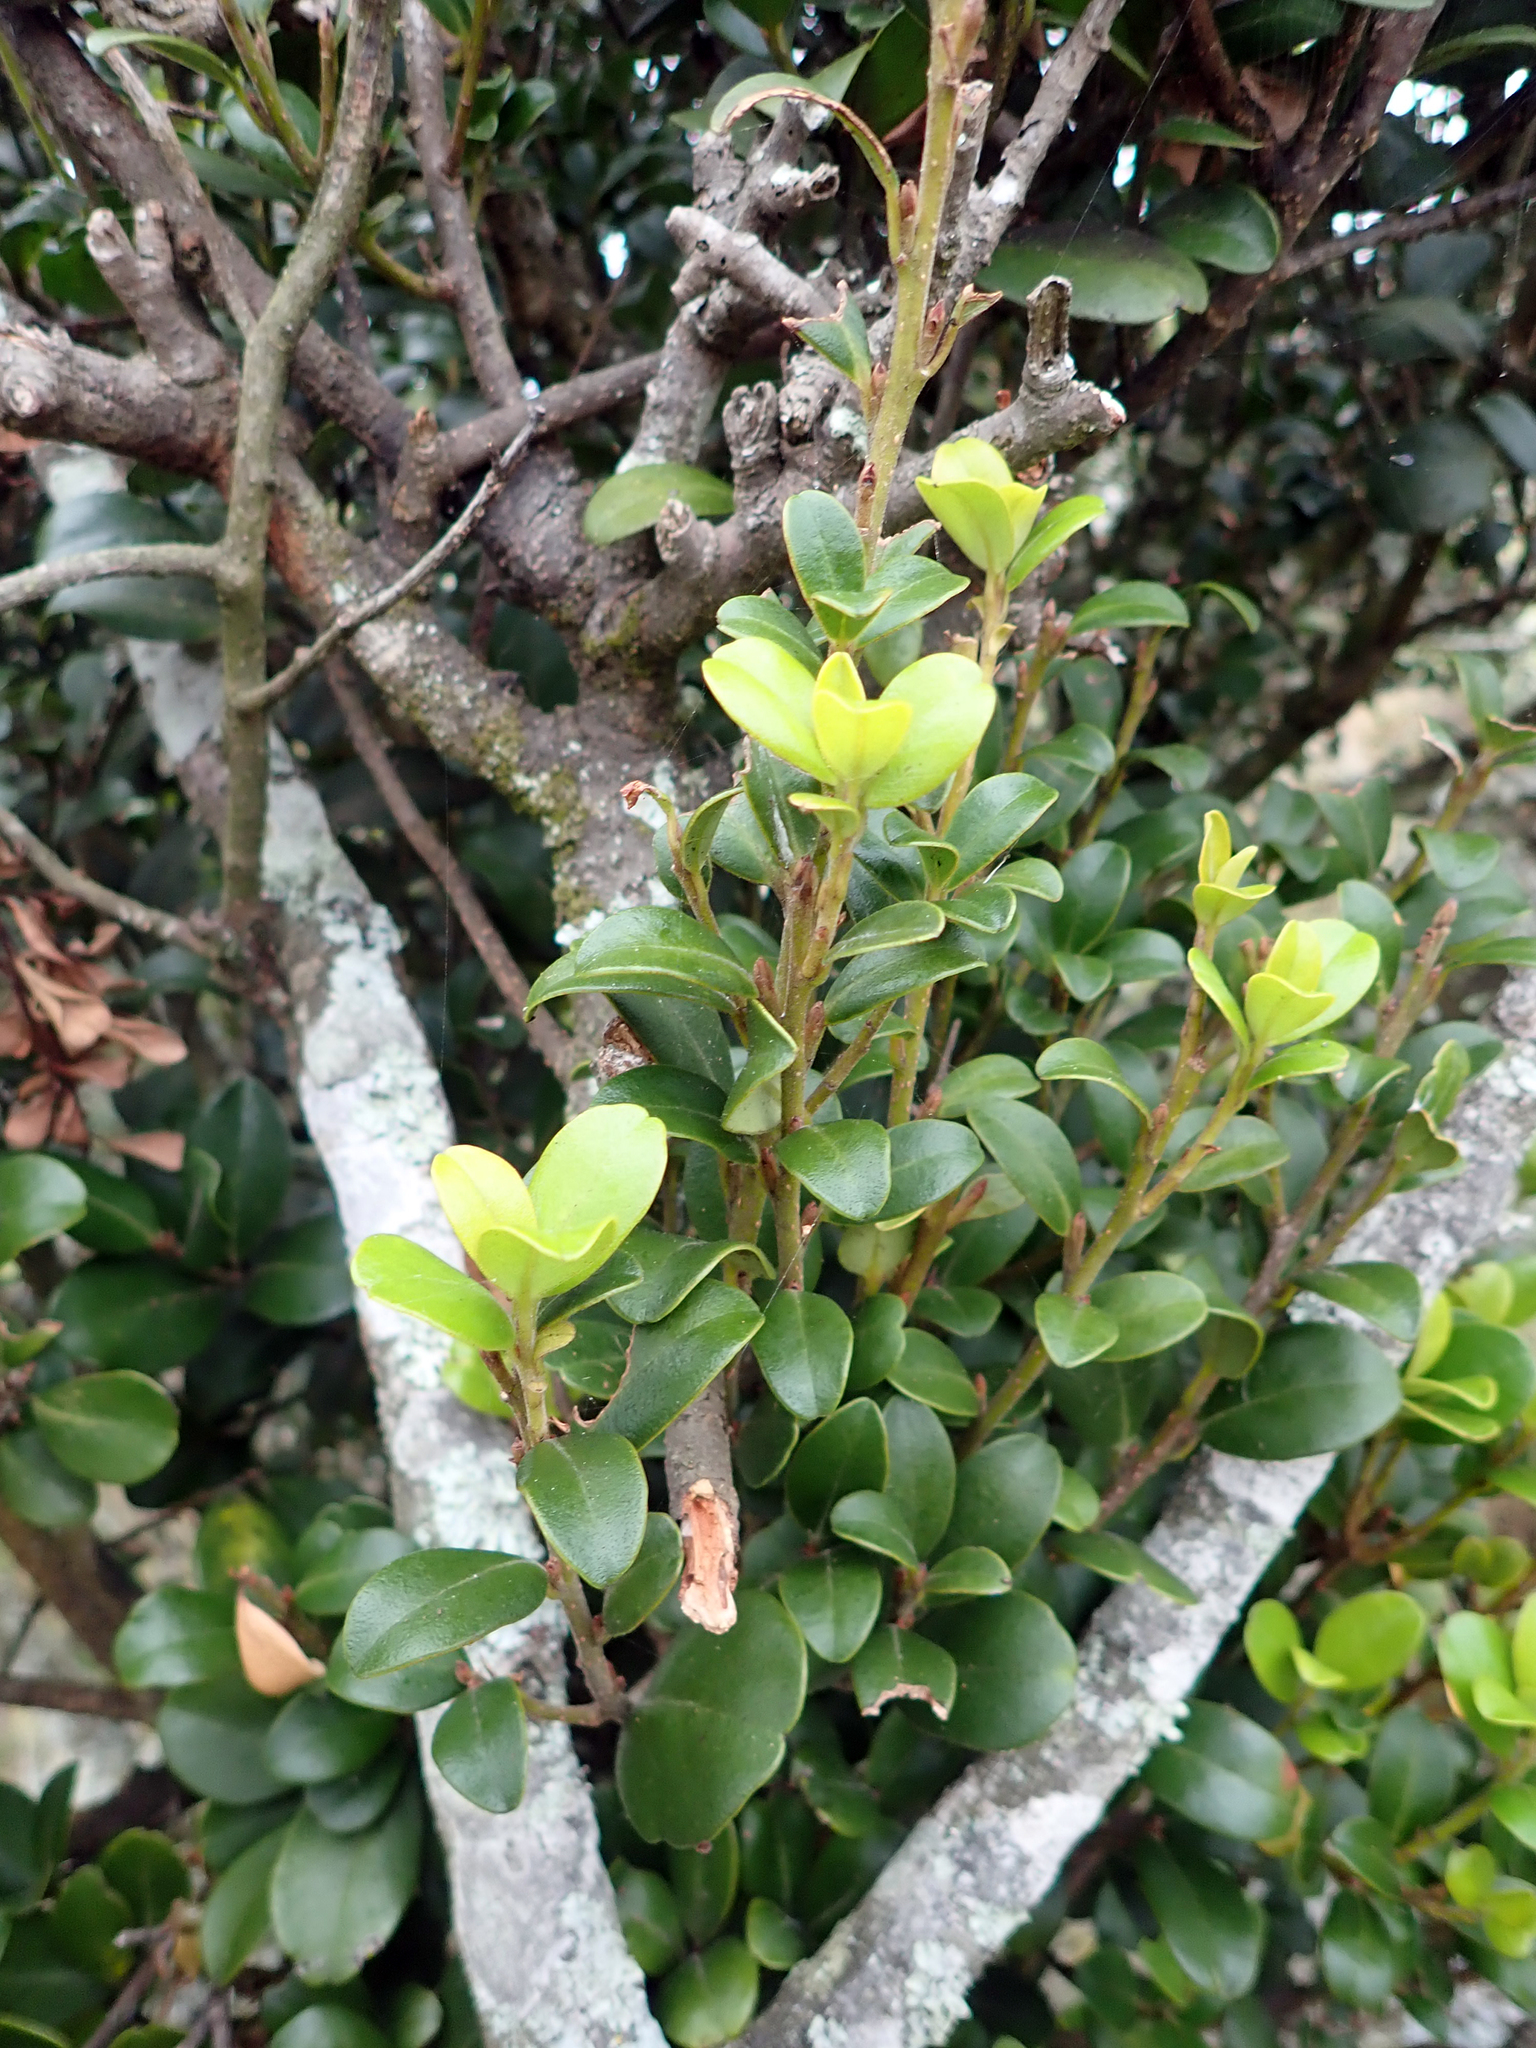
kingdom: Plantae
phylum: Tracheophyta
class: Magnoliopsida
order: Ericales
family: Primulaceae
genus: Myrsine
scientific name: Myrsine chathamica
